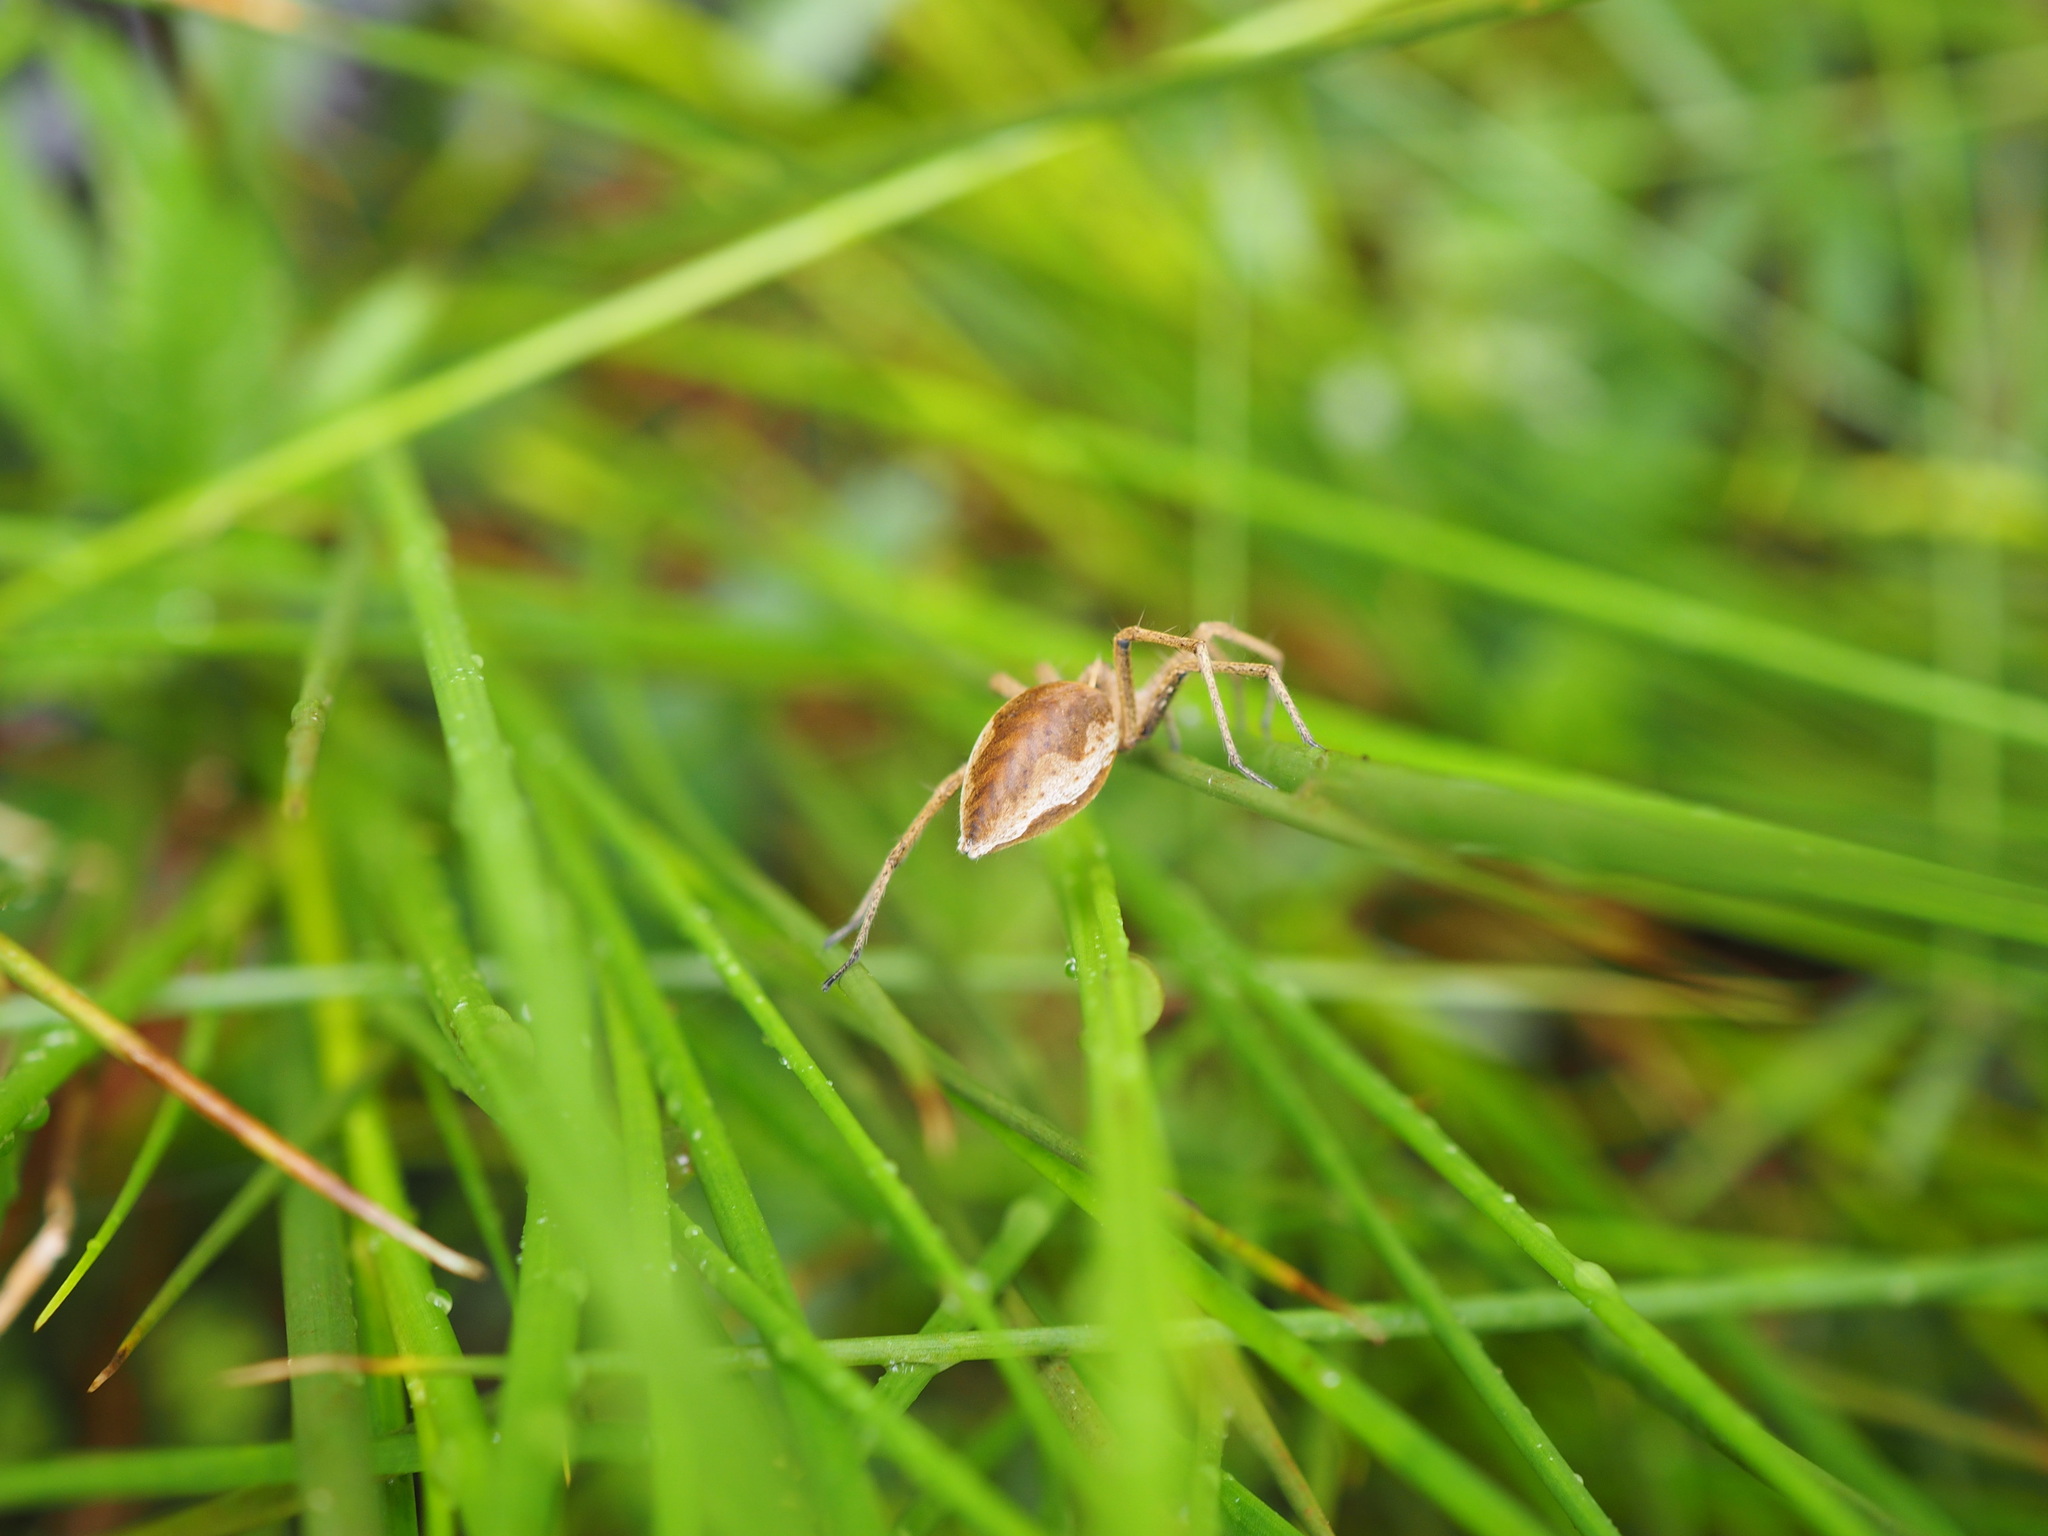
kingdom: Animalia
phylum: Arthropoda
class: Arachnida
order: Araneae
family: Pisauridae
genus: Pisaura
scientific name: Pisaura mirabilis
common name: Tent spider
